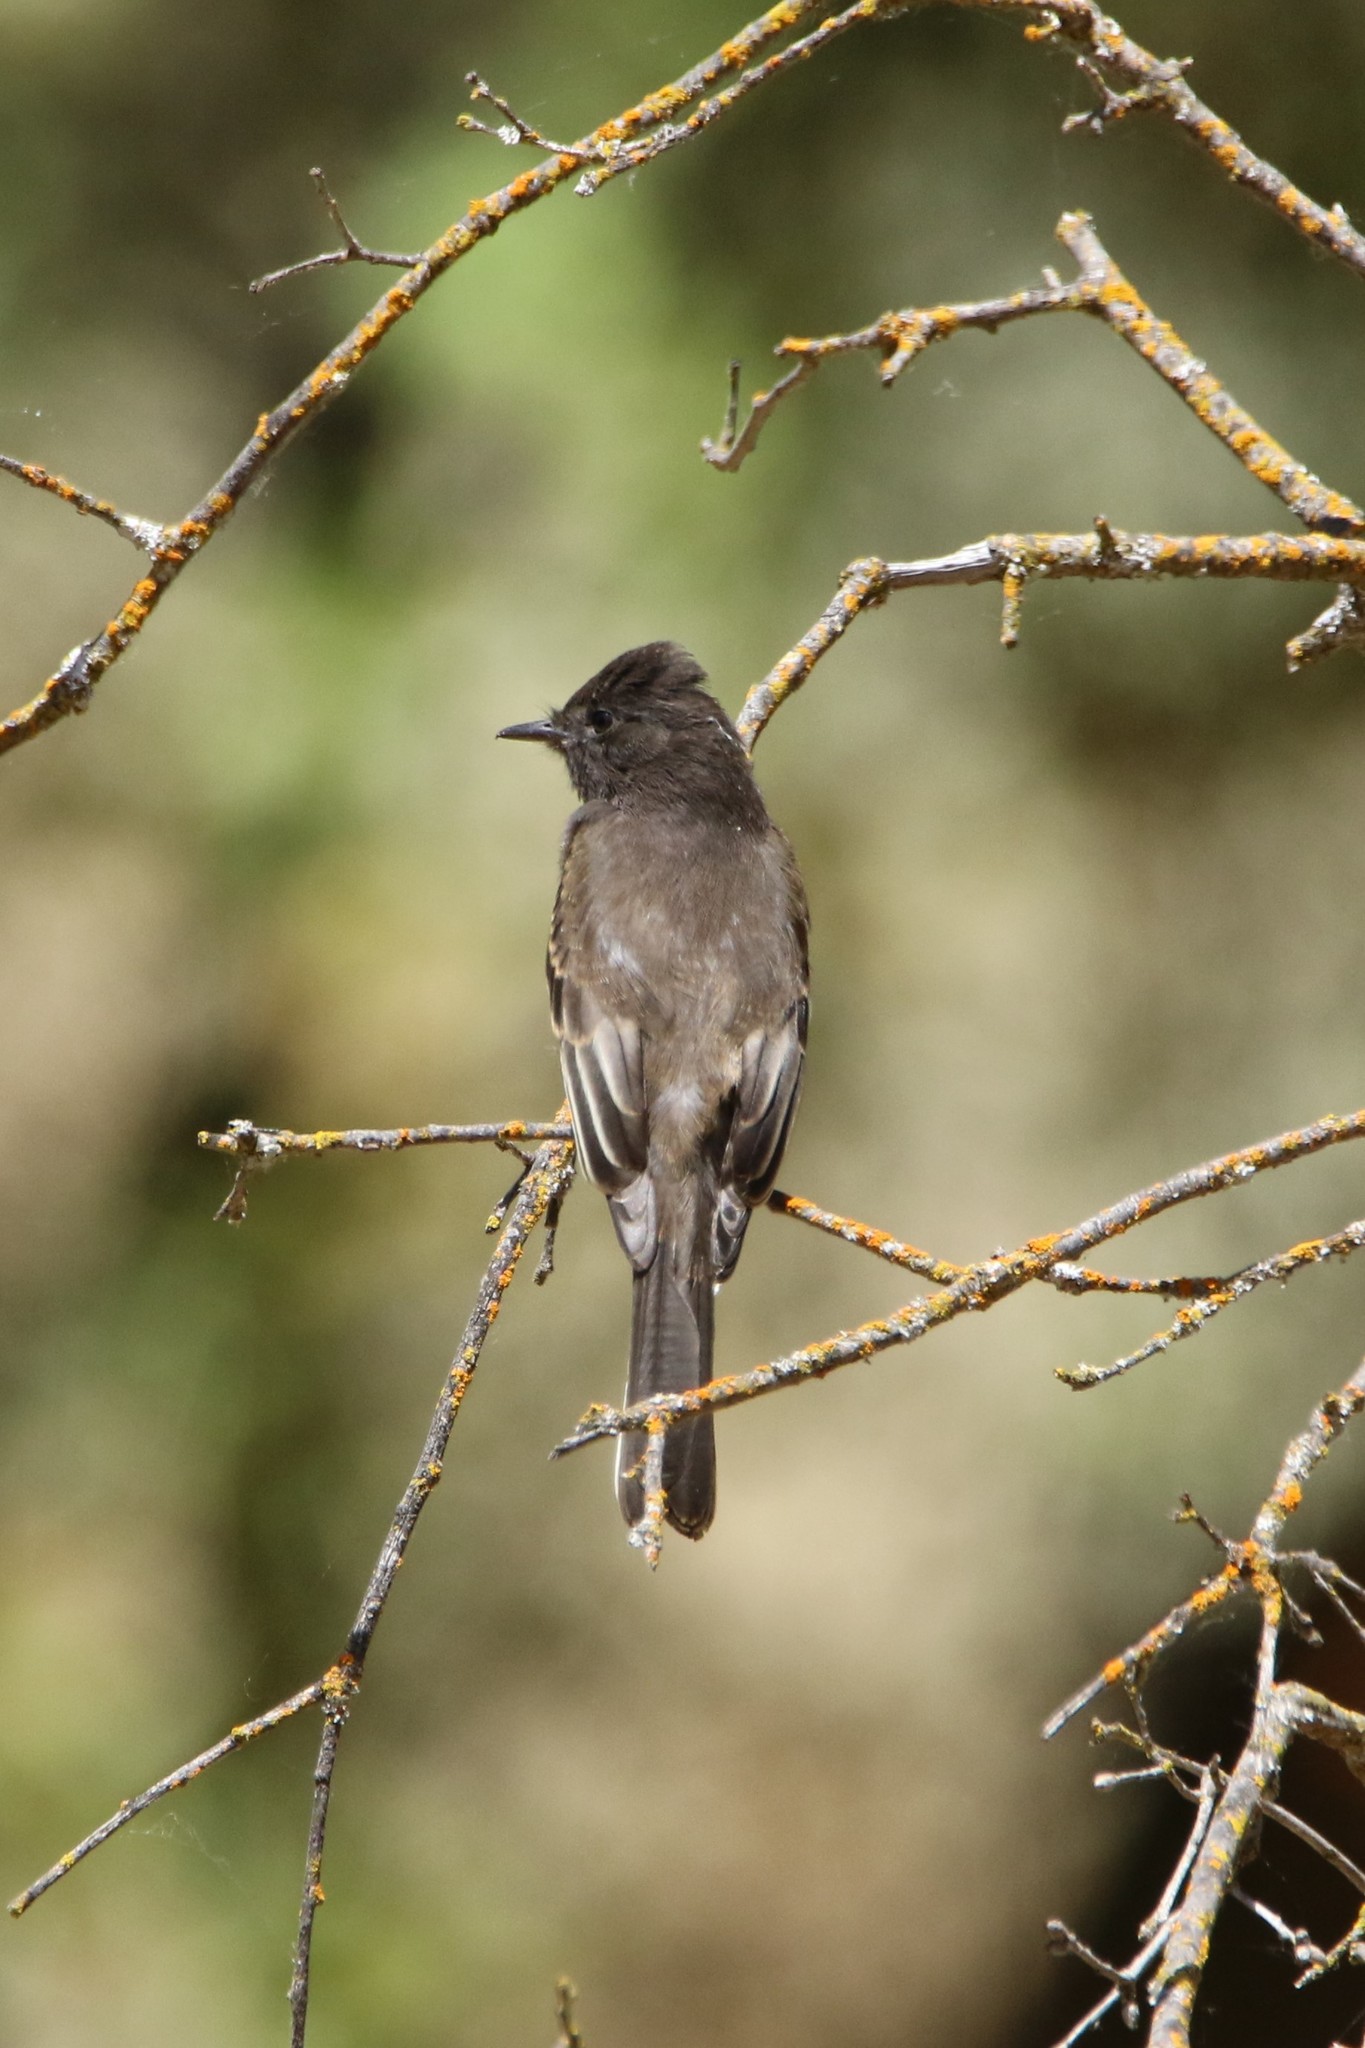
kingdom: Animalia
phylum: Chordata
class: Aves
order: Passeriformes
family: Tyrannidae
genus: Sayornis
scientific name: Sayornis nigricans
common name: Black phoebe
